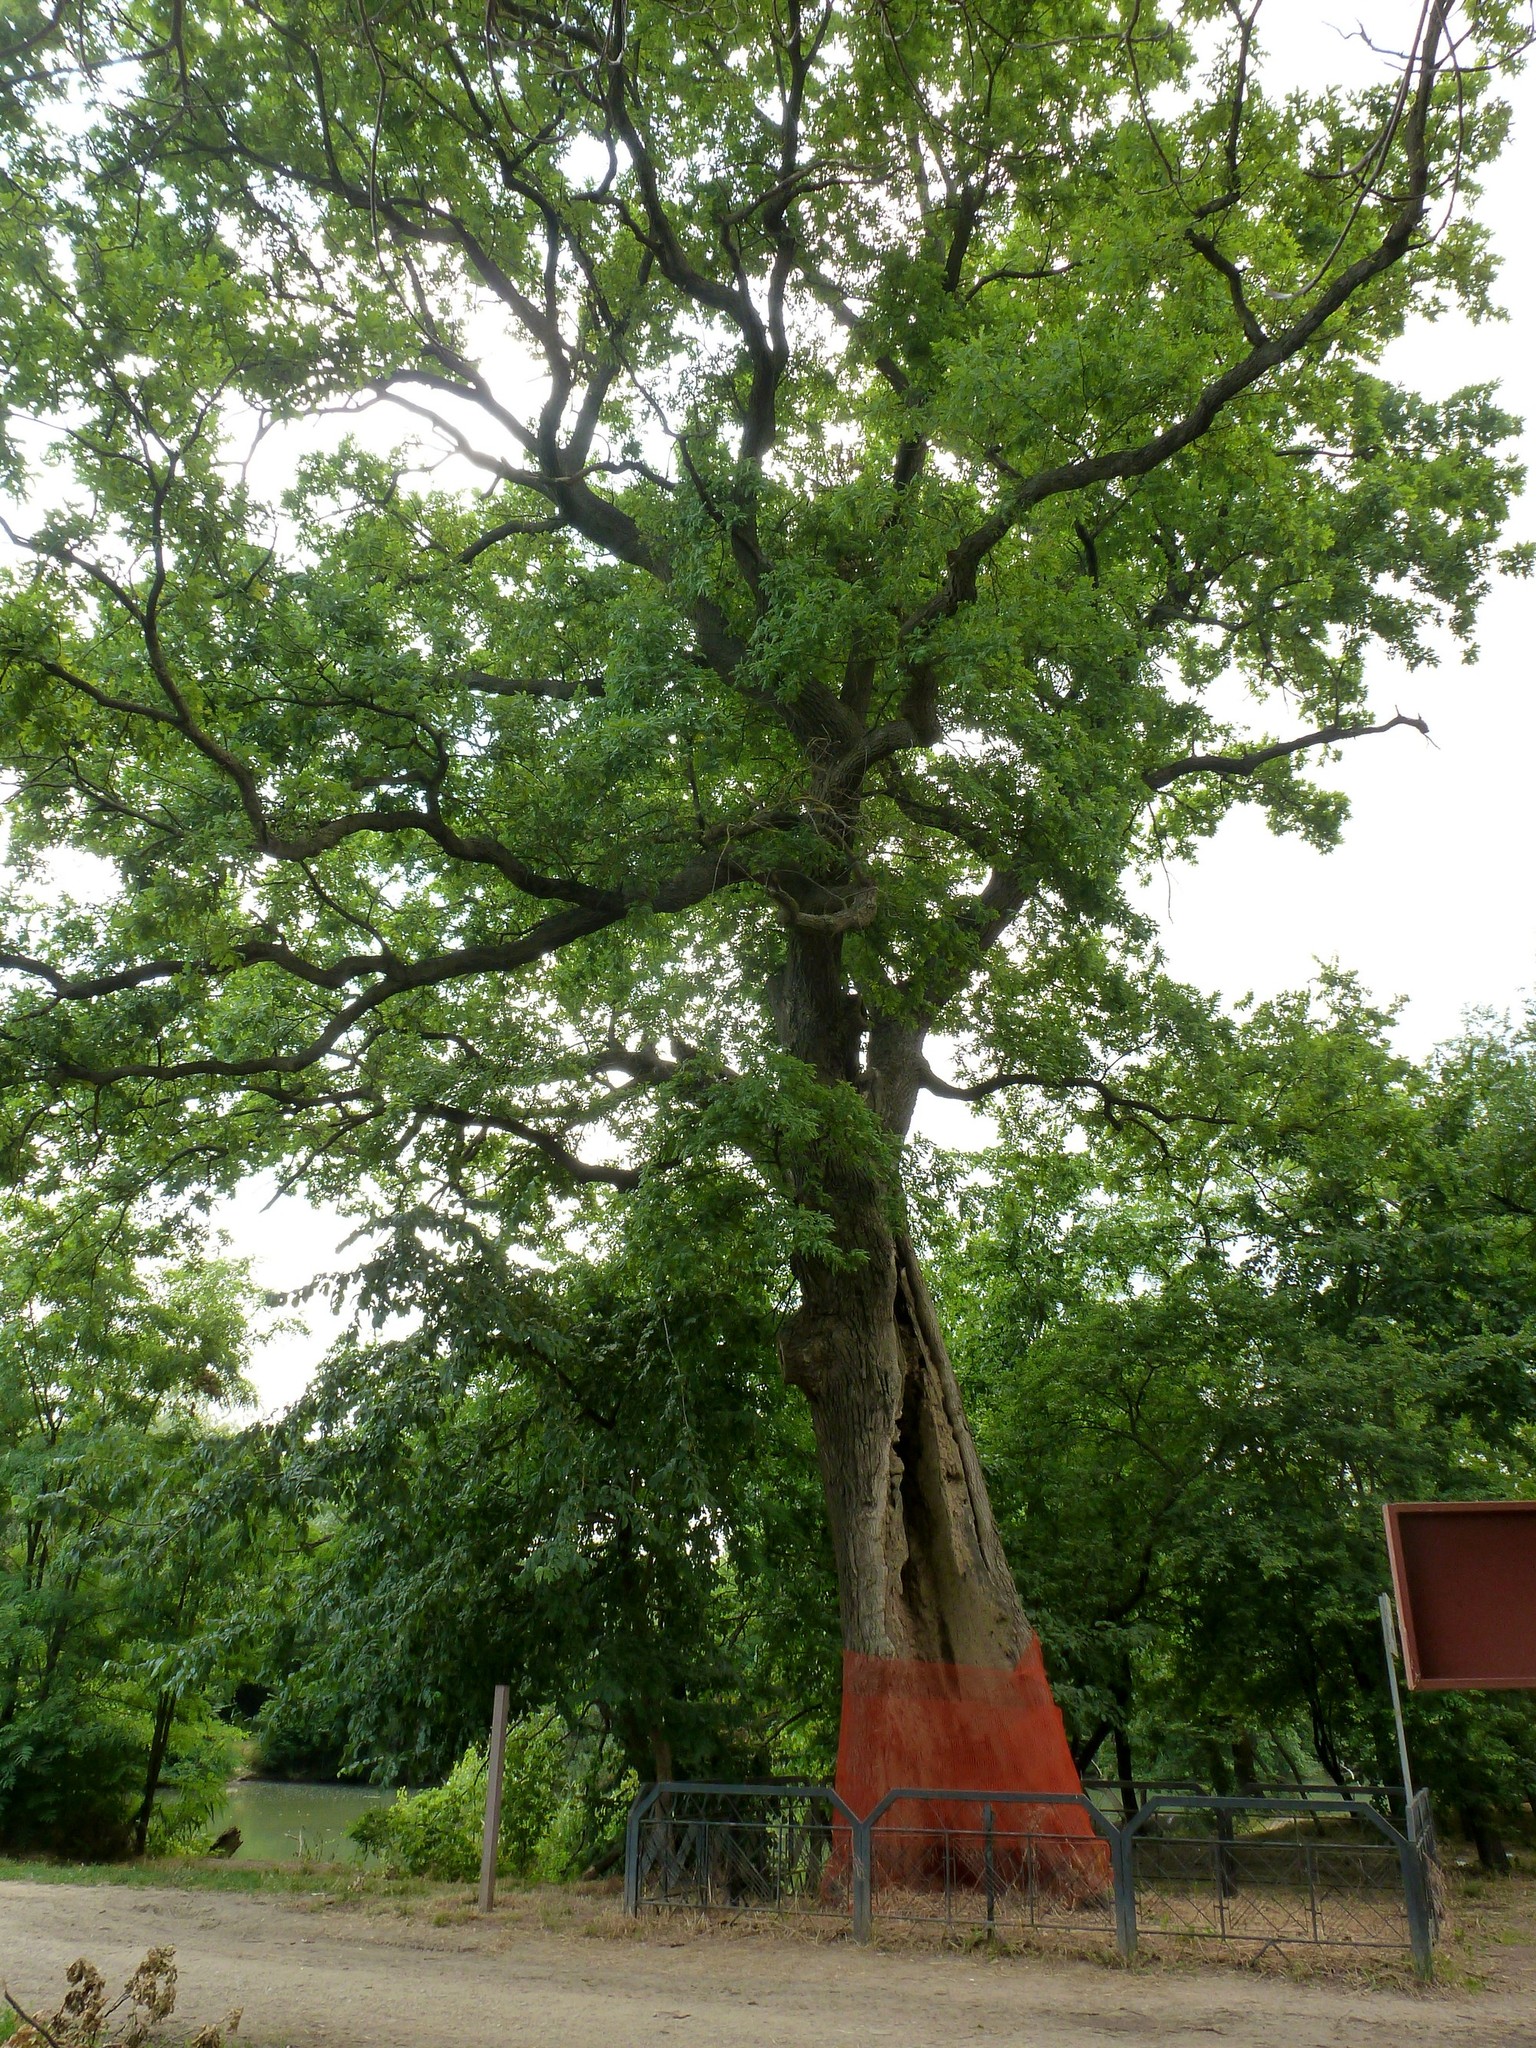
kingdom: Plantae
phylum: Tracheophyta
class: Magnoliopsida
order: Fagales
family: Fagaceae
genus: Quercus
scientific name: Quercus robur
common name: Pedunculate oak
